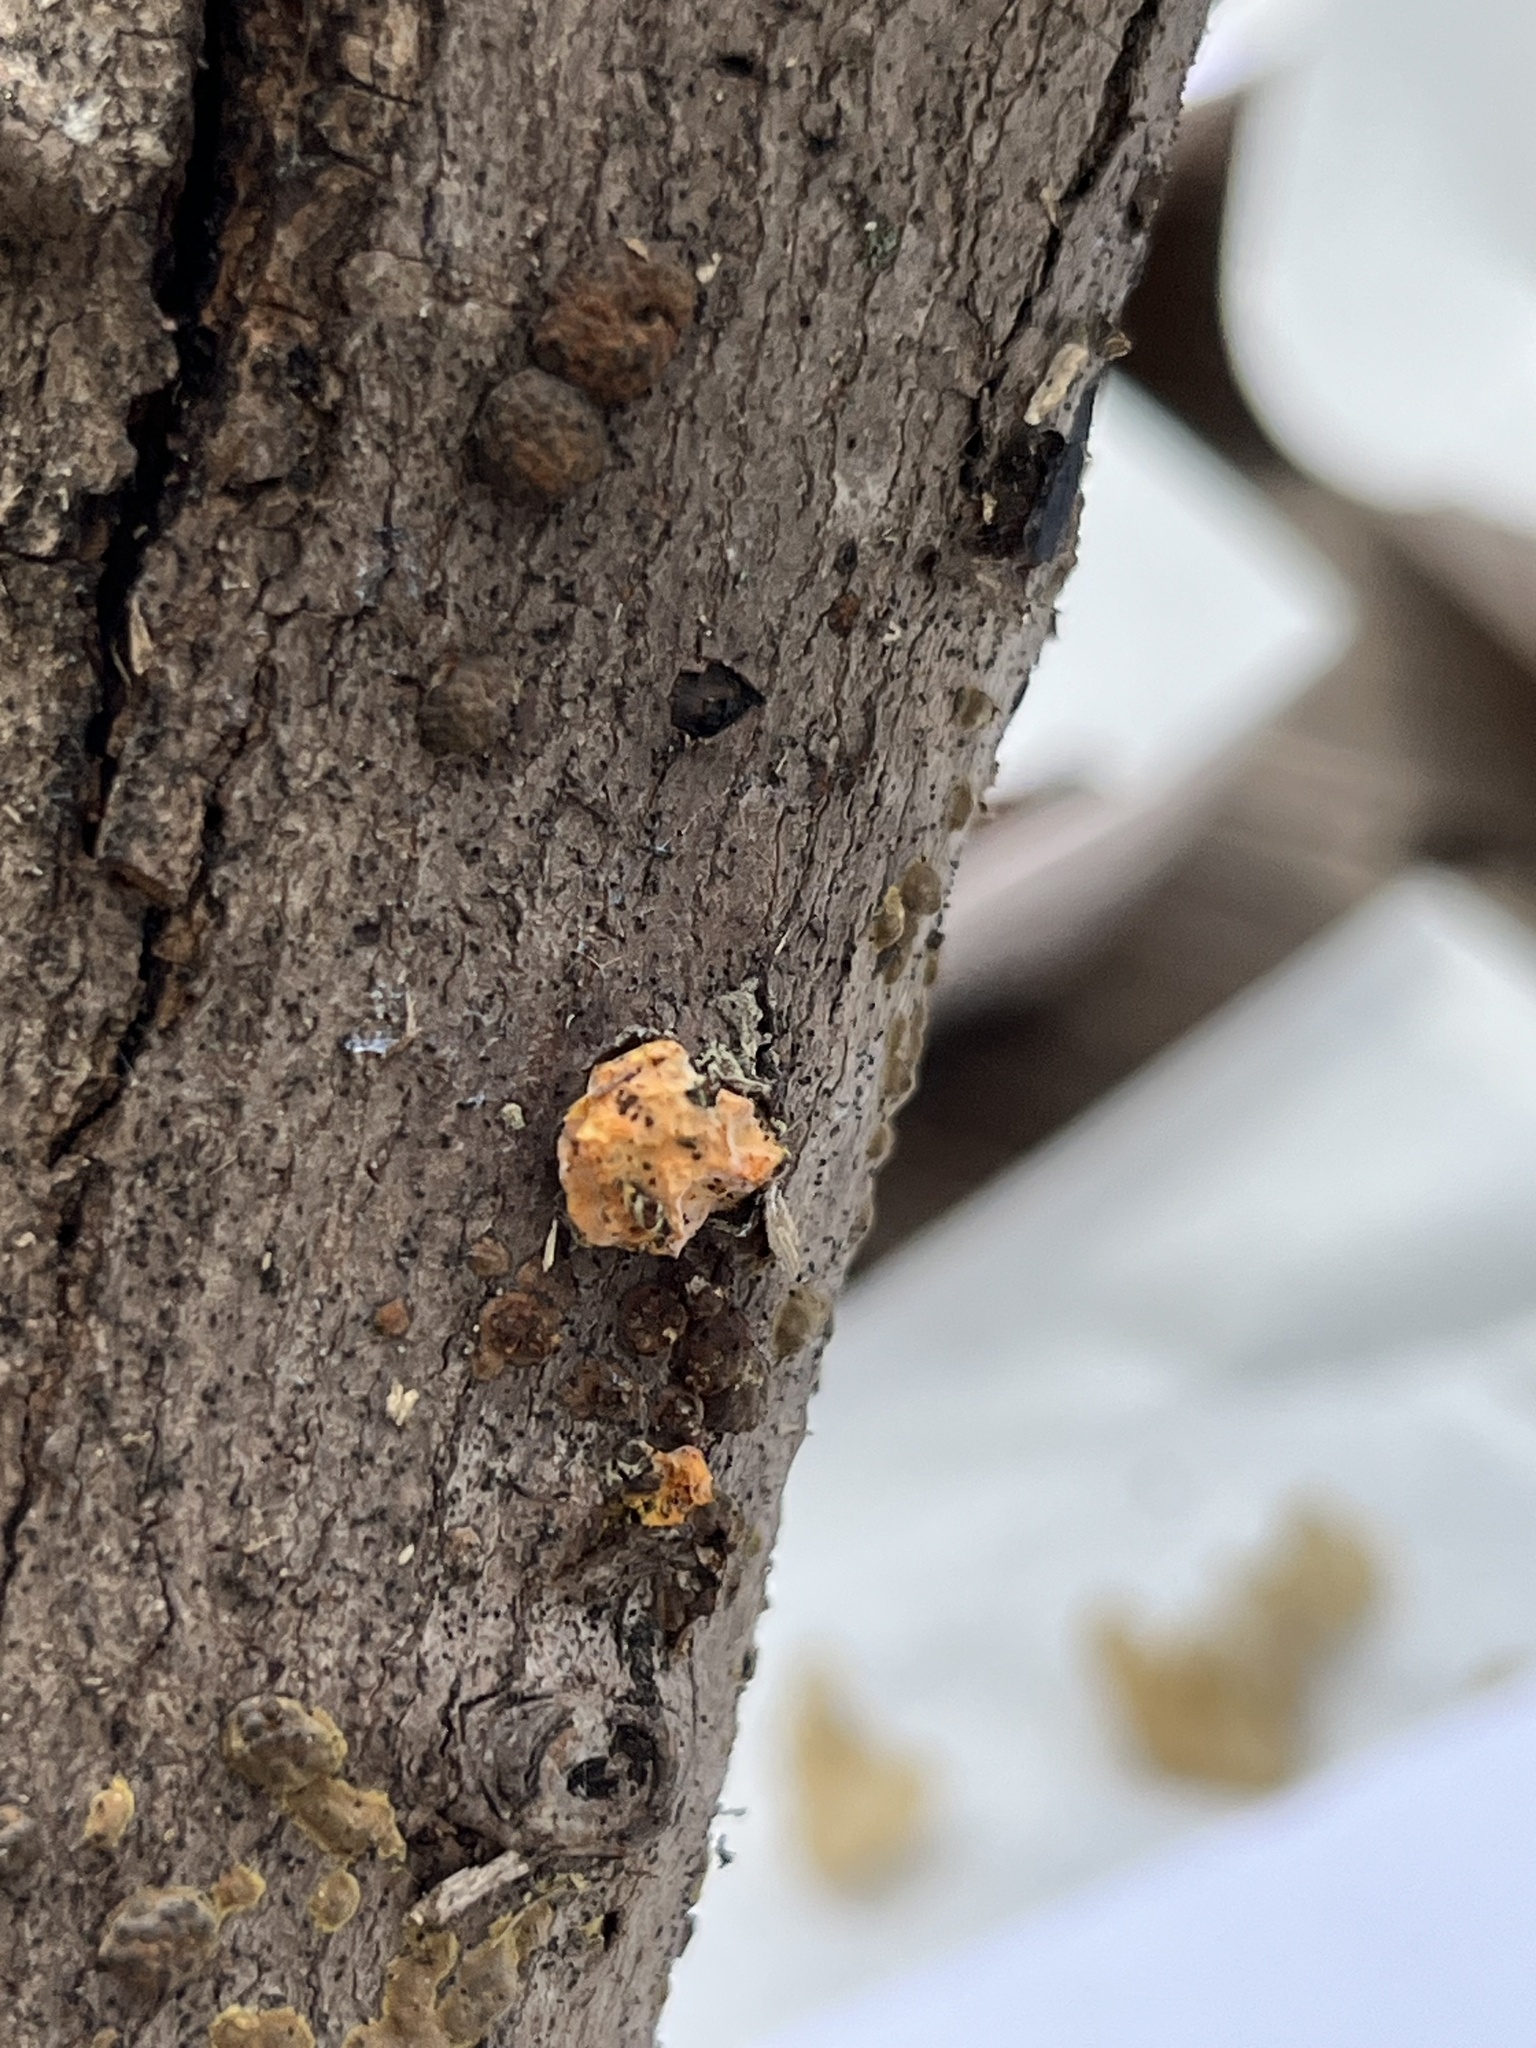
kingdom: Fungi
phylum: Ascomycota
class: Sordariomycetes
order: Xylariales
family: Hypoxylaceae
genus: Thuemenella
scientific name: Thuemenella cubispora
